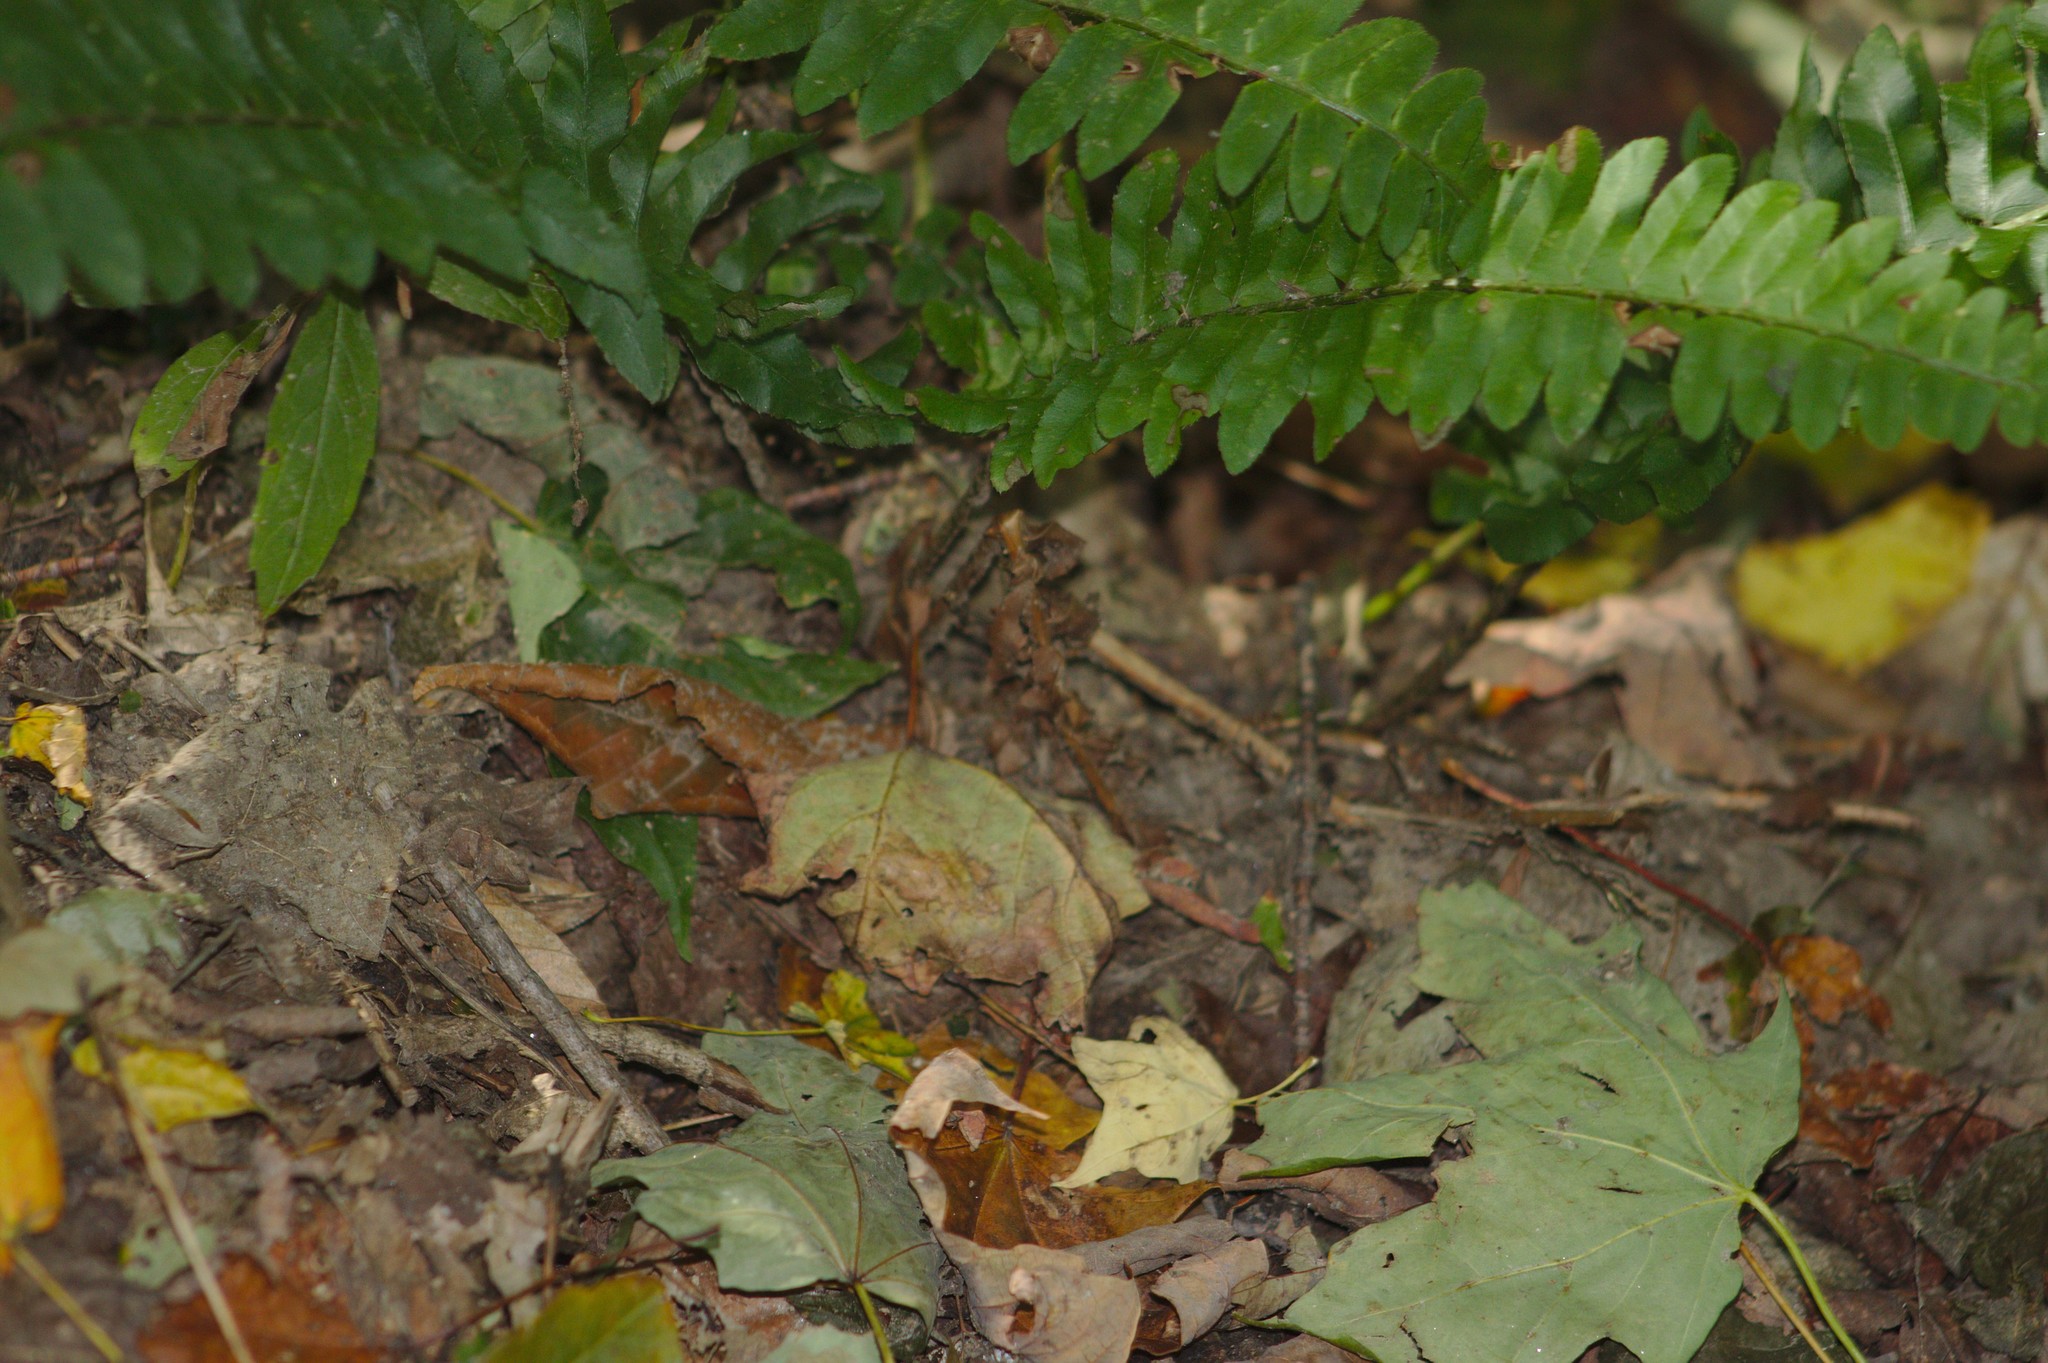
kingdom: Plantae
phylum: Tracheophyta
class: Polypodiopsida
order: Polypodiales
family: Dryopteridaceae
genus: Polystichum
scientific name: Polystichum acrostichoides
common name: Christmas fern
